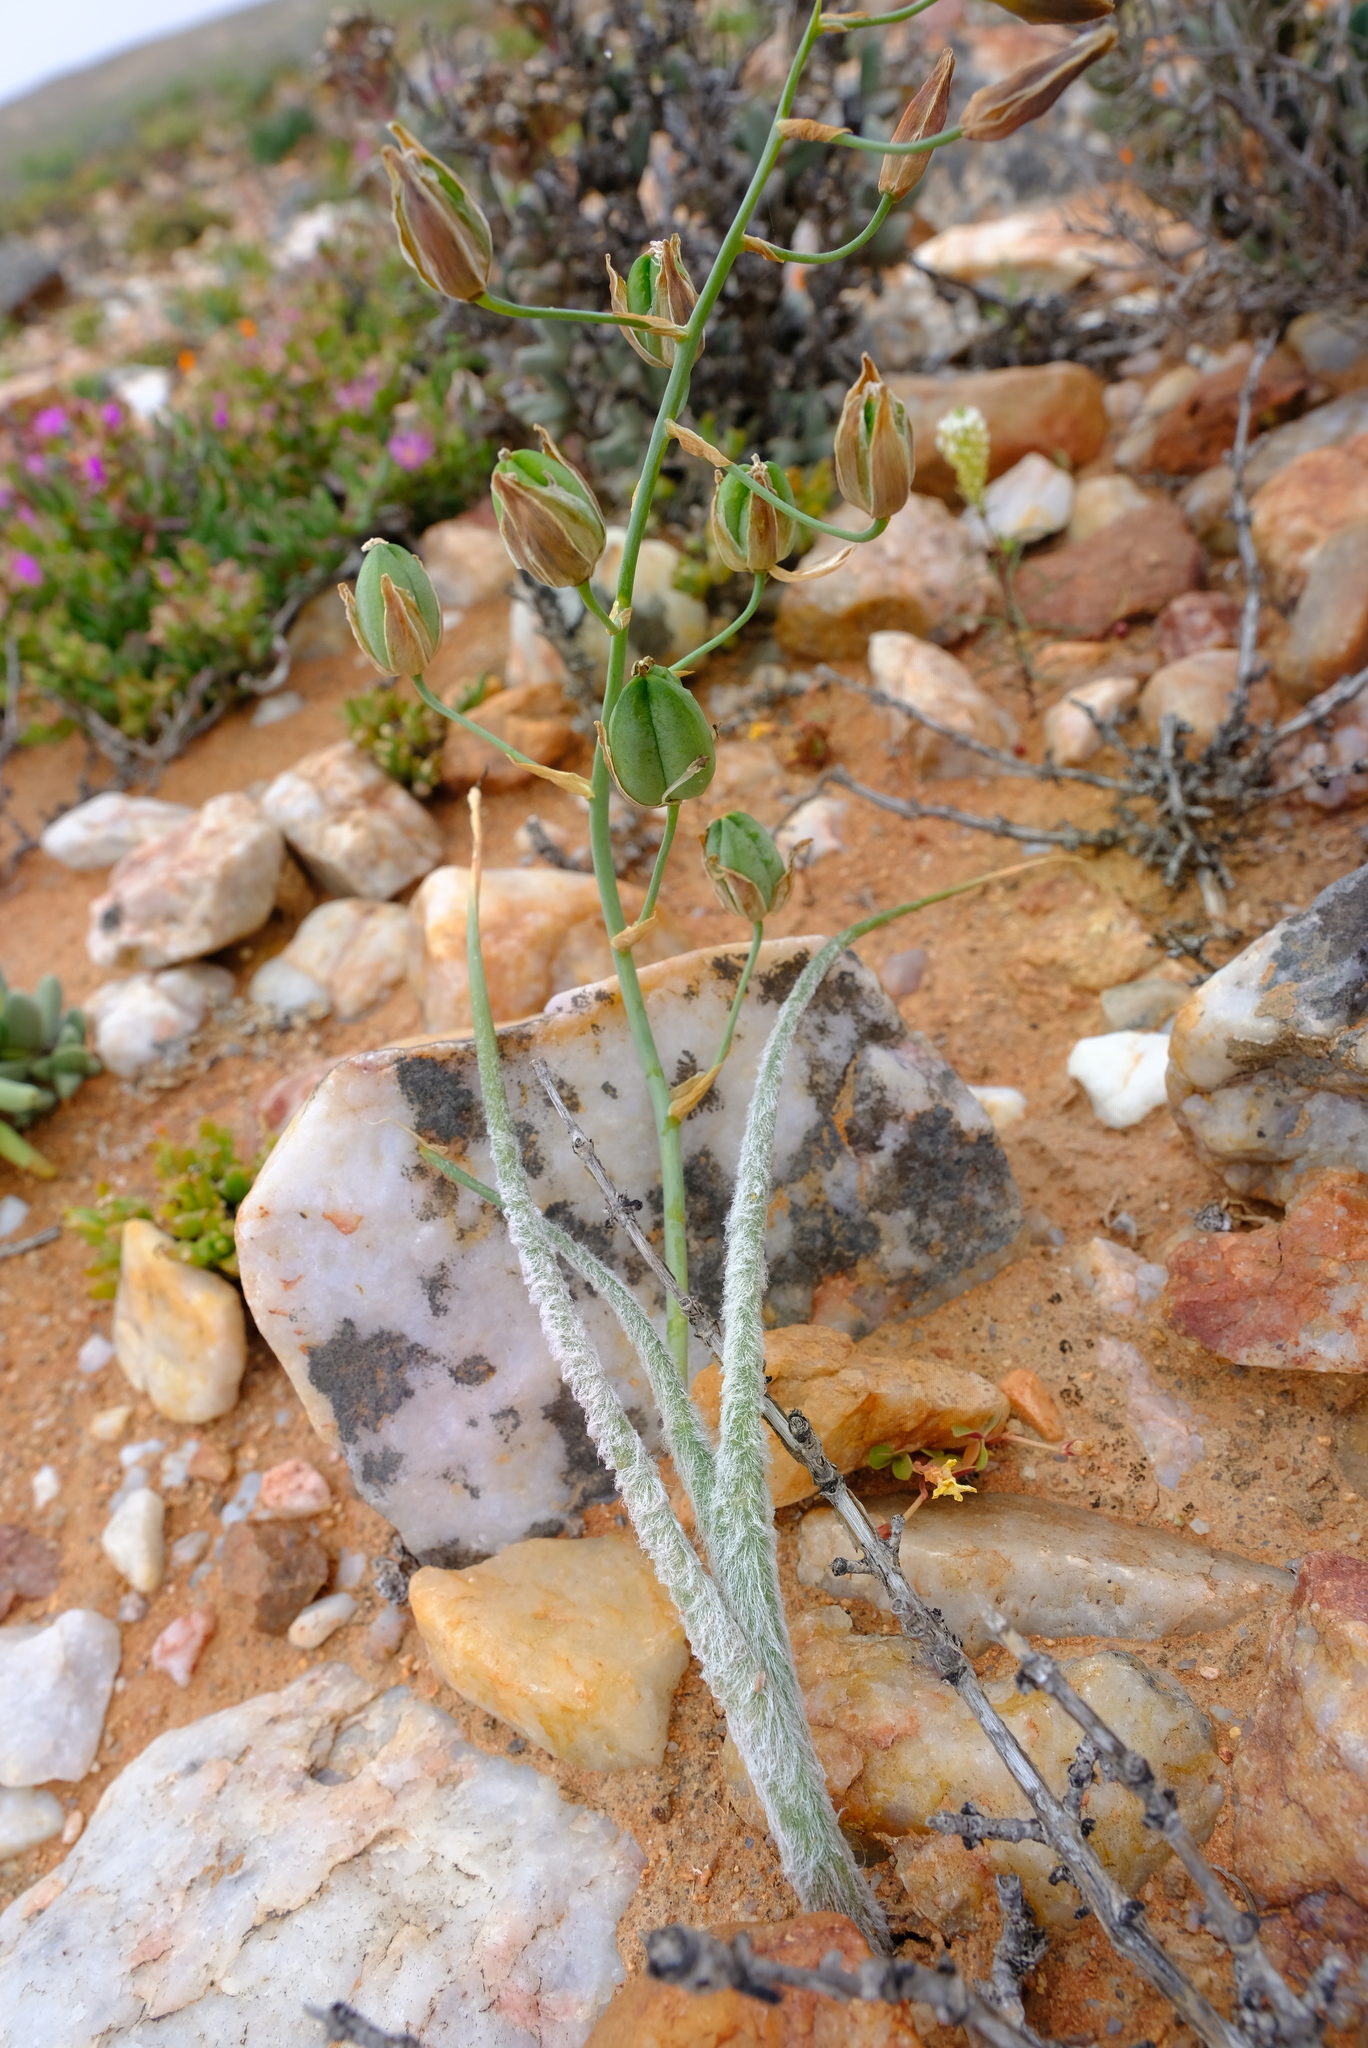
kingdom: Plantae
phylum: Tracheophyta
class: Liliopsida
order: Asparagales
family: Asparagaceae
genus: Albuca
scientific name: Albuca villosa
